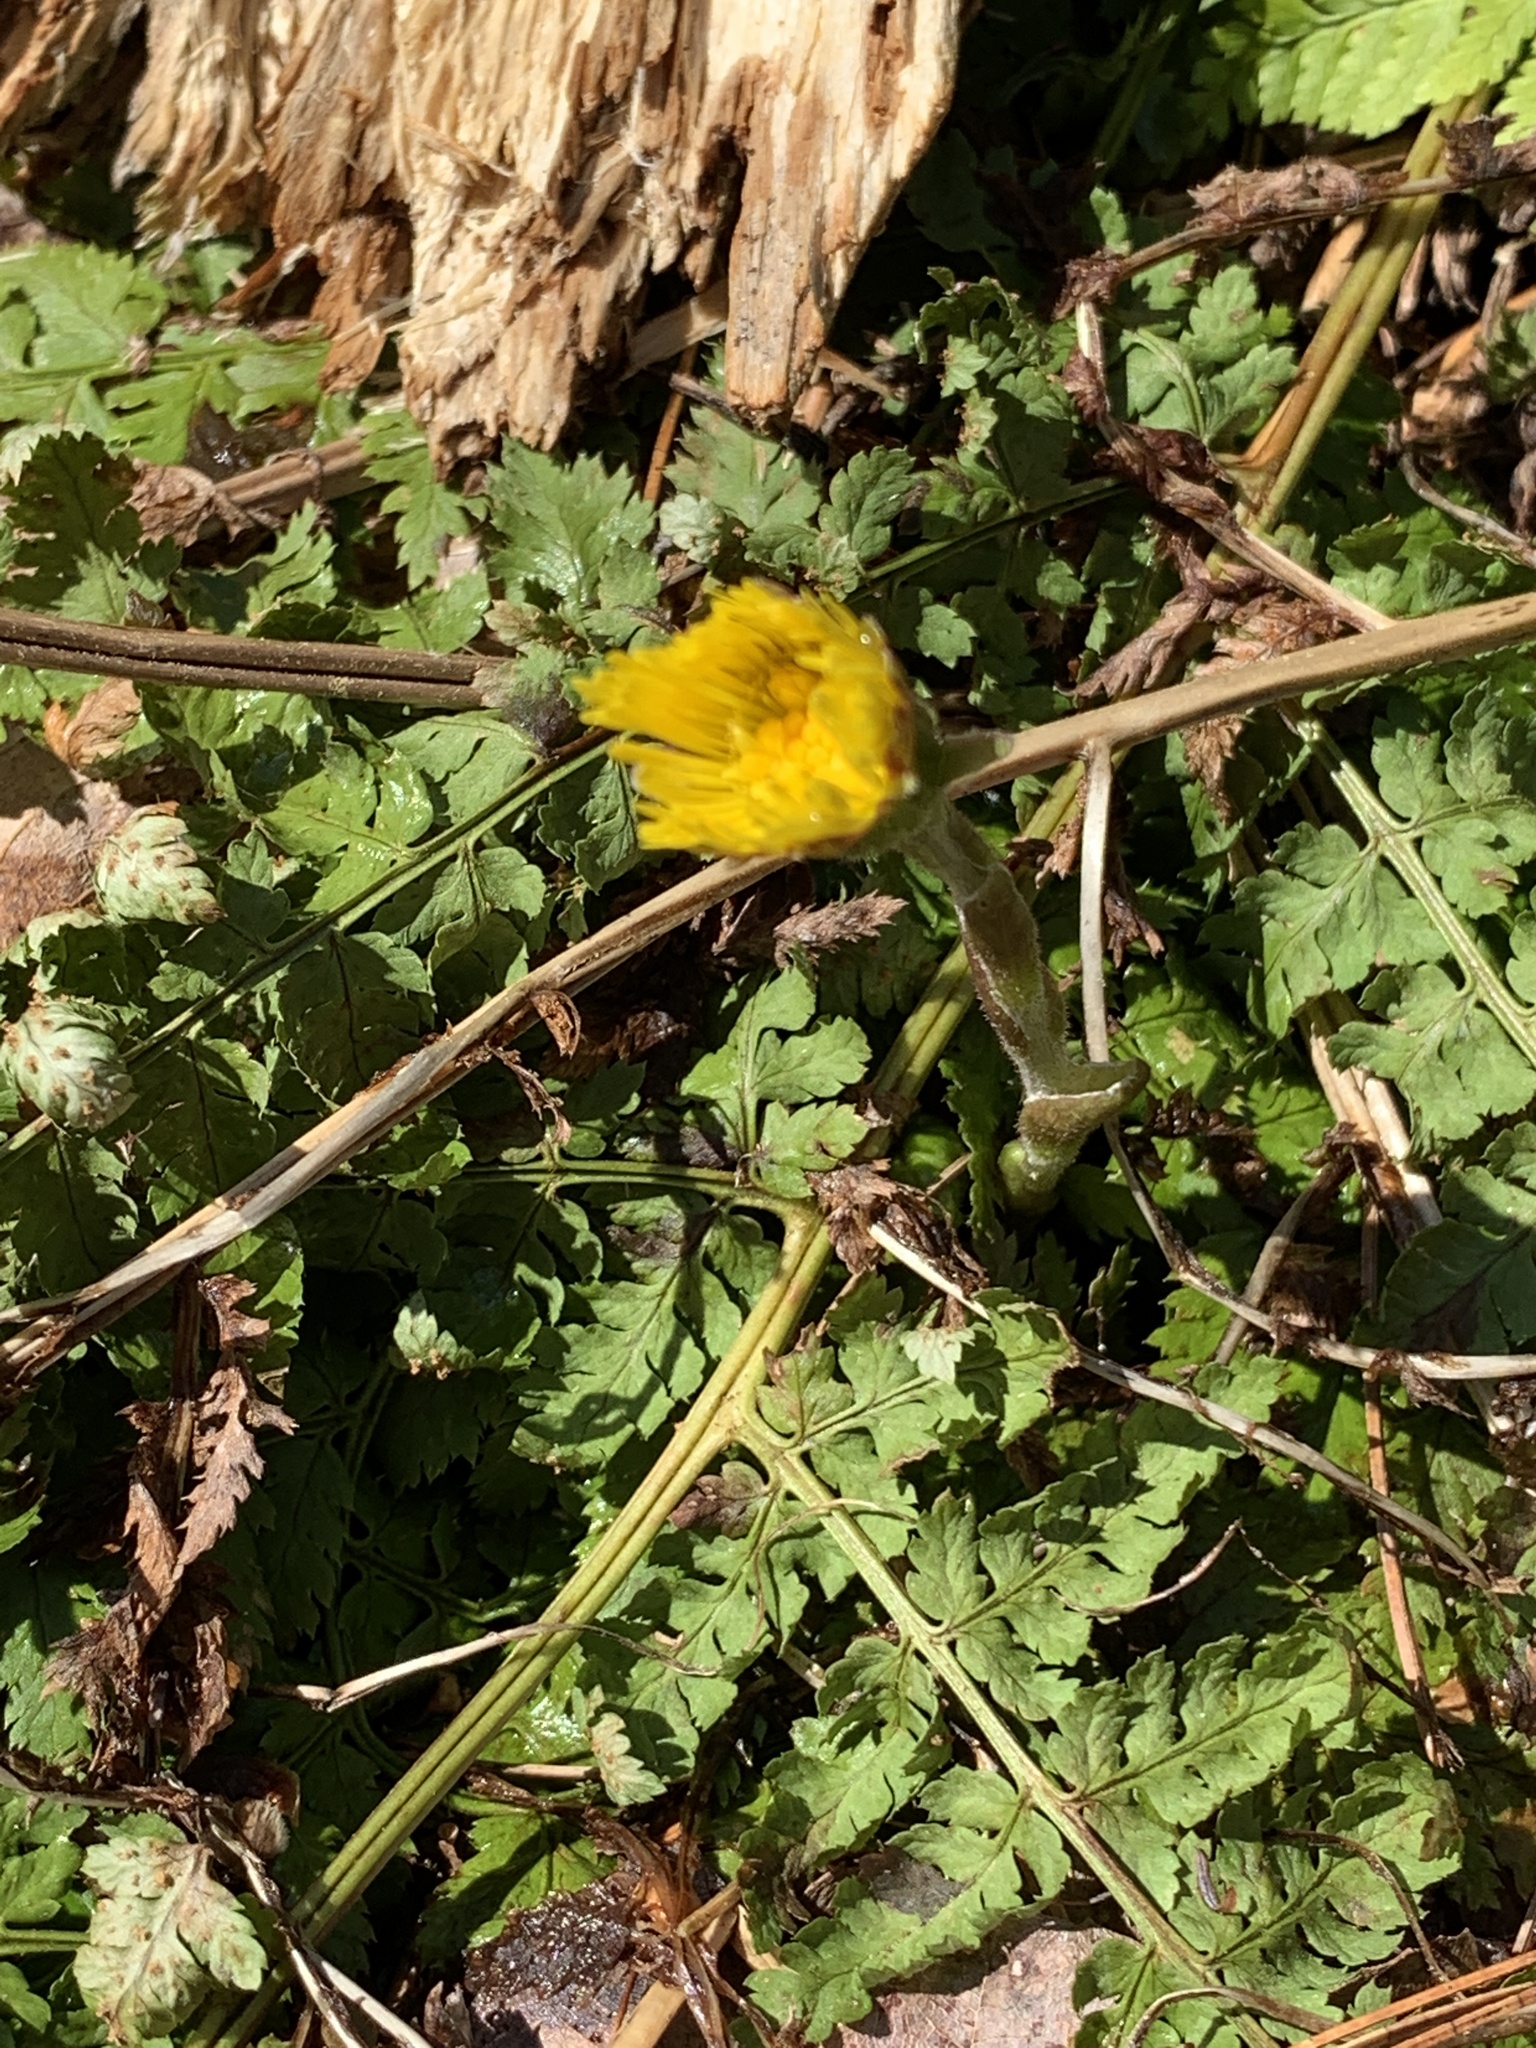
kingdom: Plantae
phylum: Tracheophyta
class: Magnoliopsida
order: Asterales
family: Asteraceae
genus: Tussilago
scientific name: Tussilago farfara
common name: Coltsfoot
